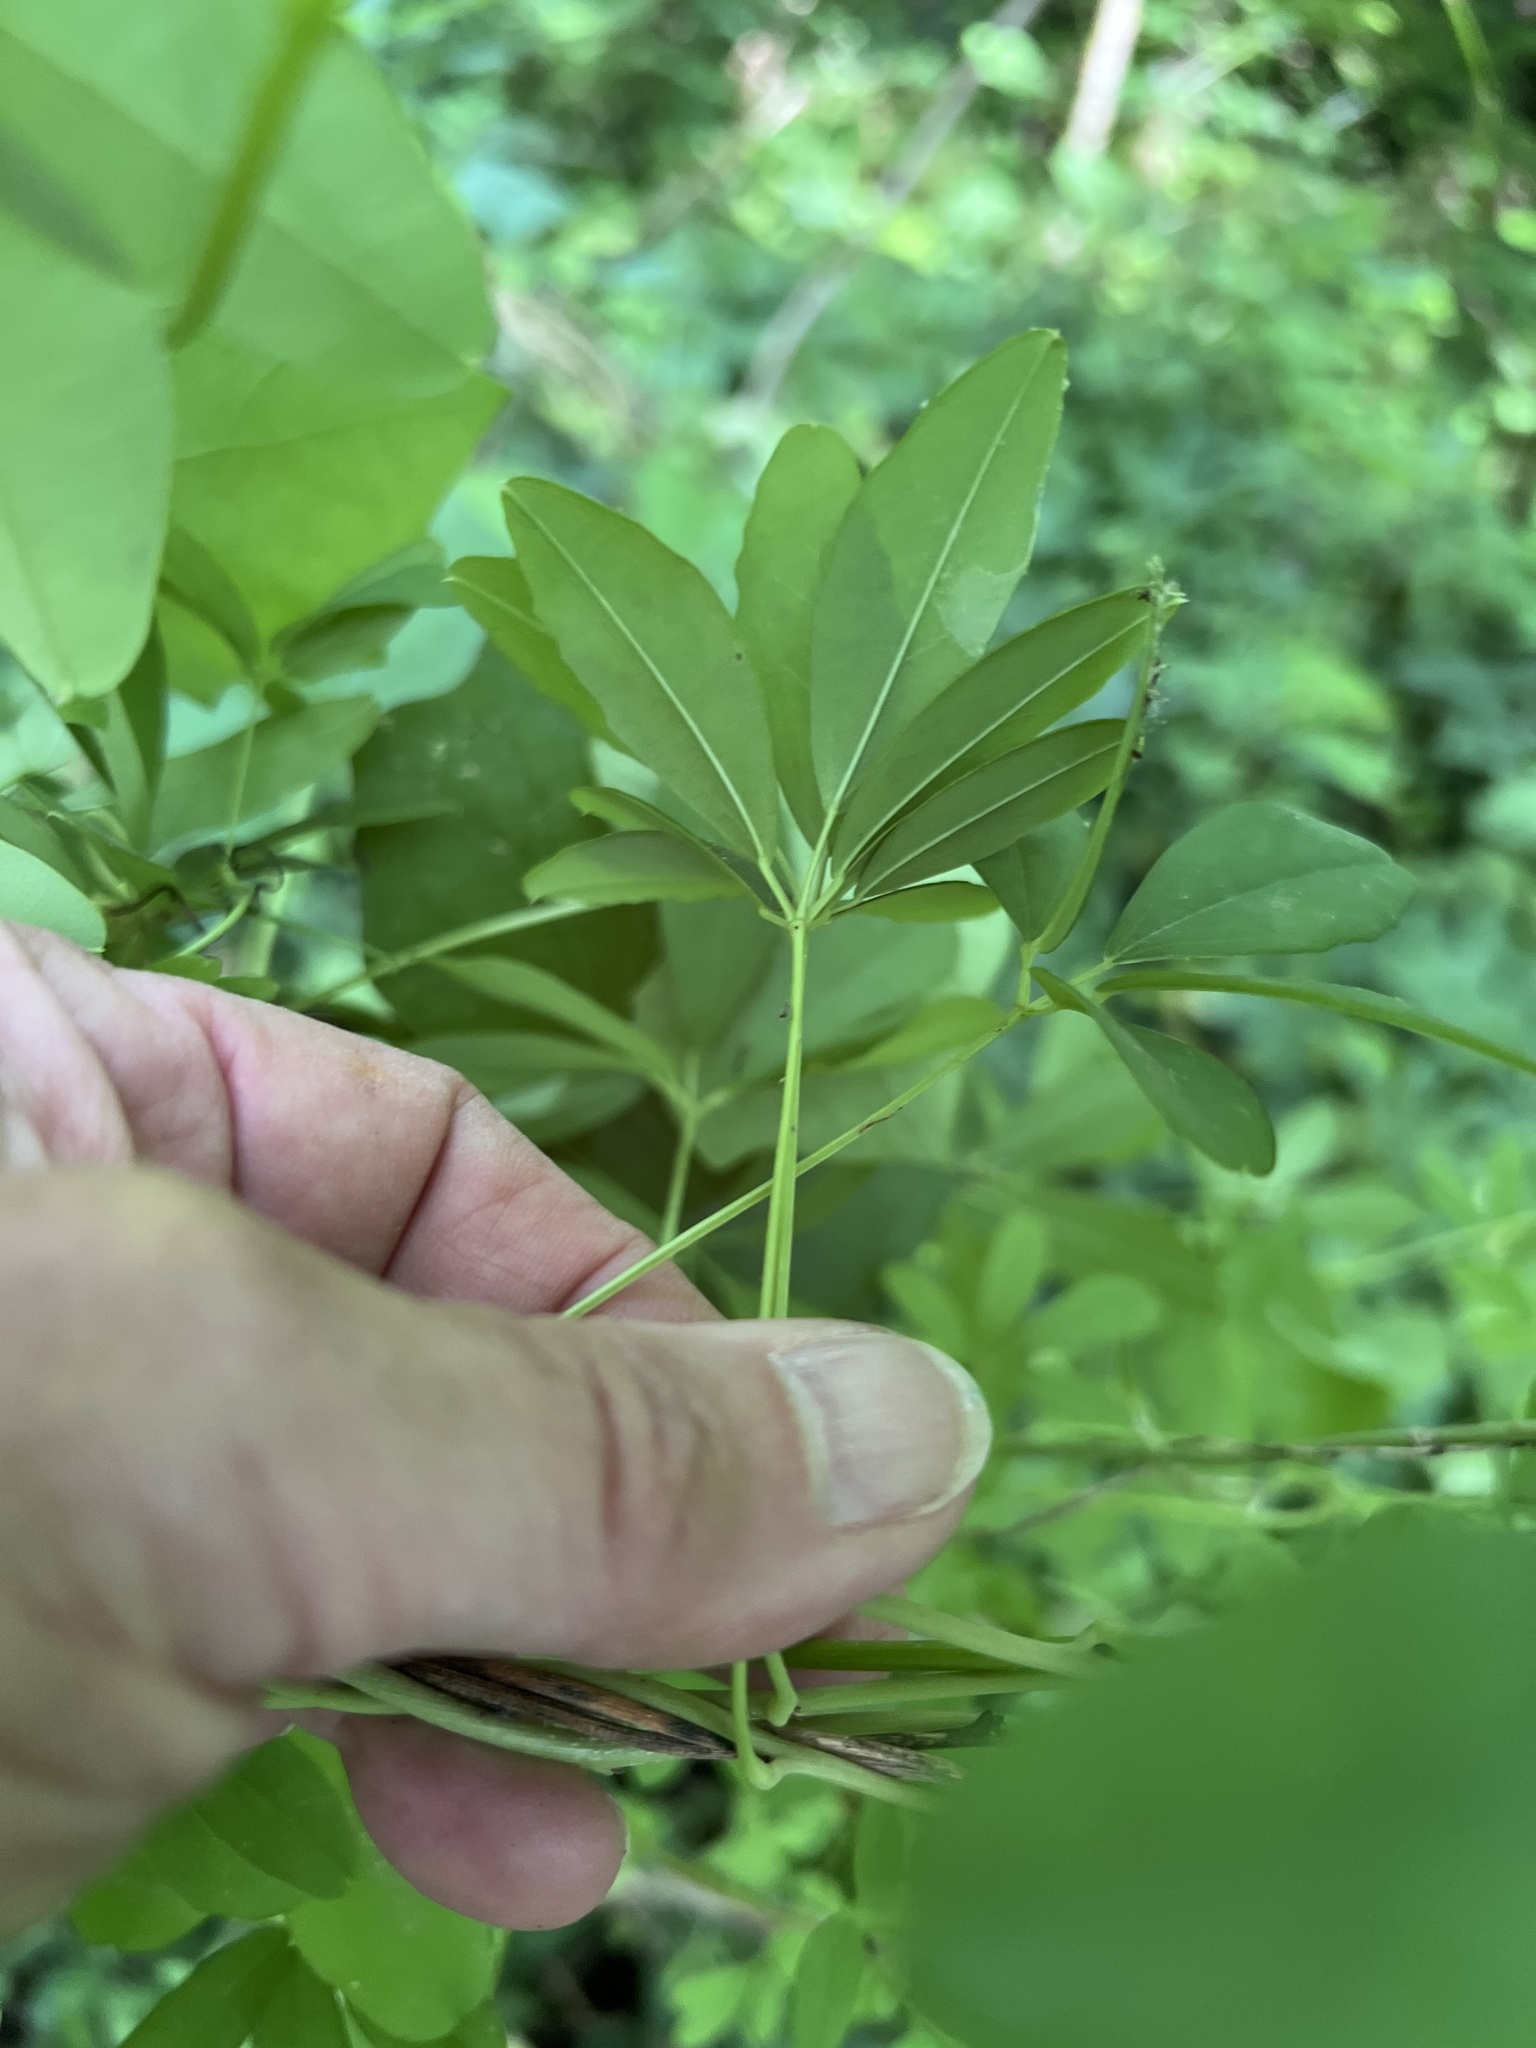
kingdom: Plantae
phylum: Tracheophyta
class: Magnoliopsida
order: Ranunculales
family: Lardizabalaceae
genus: Akebia
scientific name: Akebia quinata
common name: Five-leaf akebia
